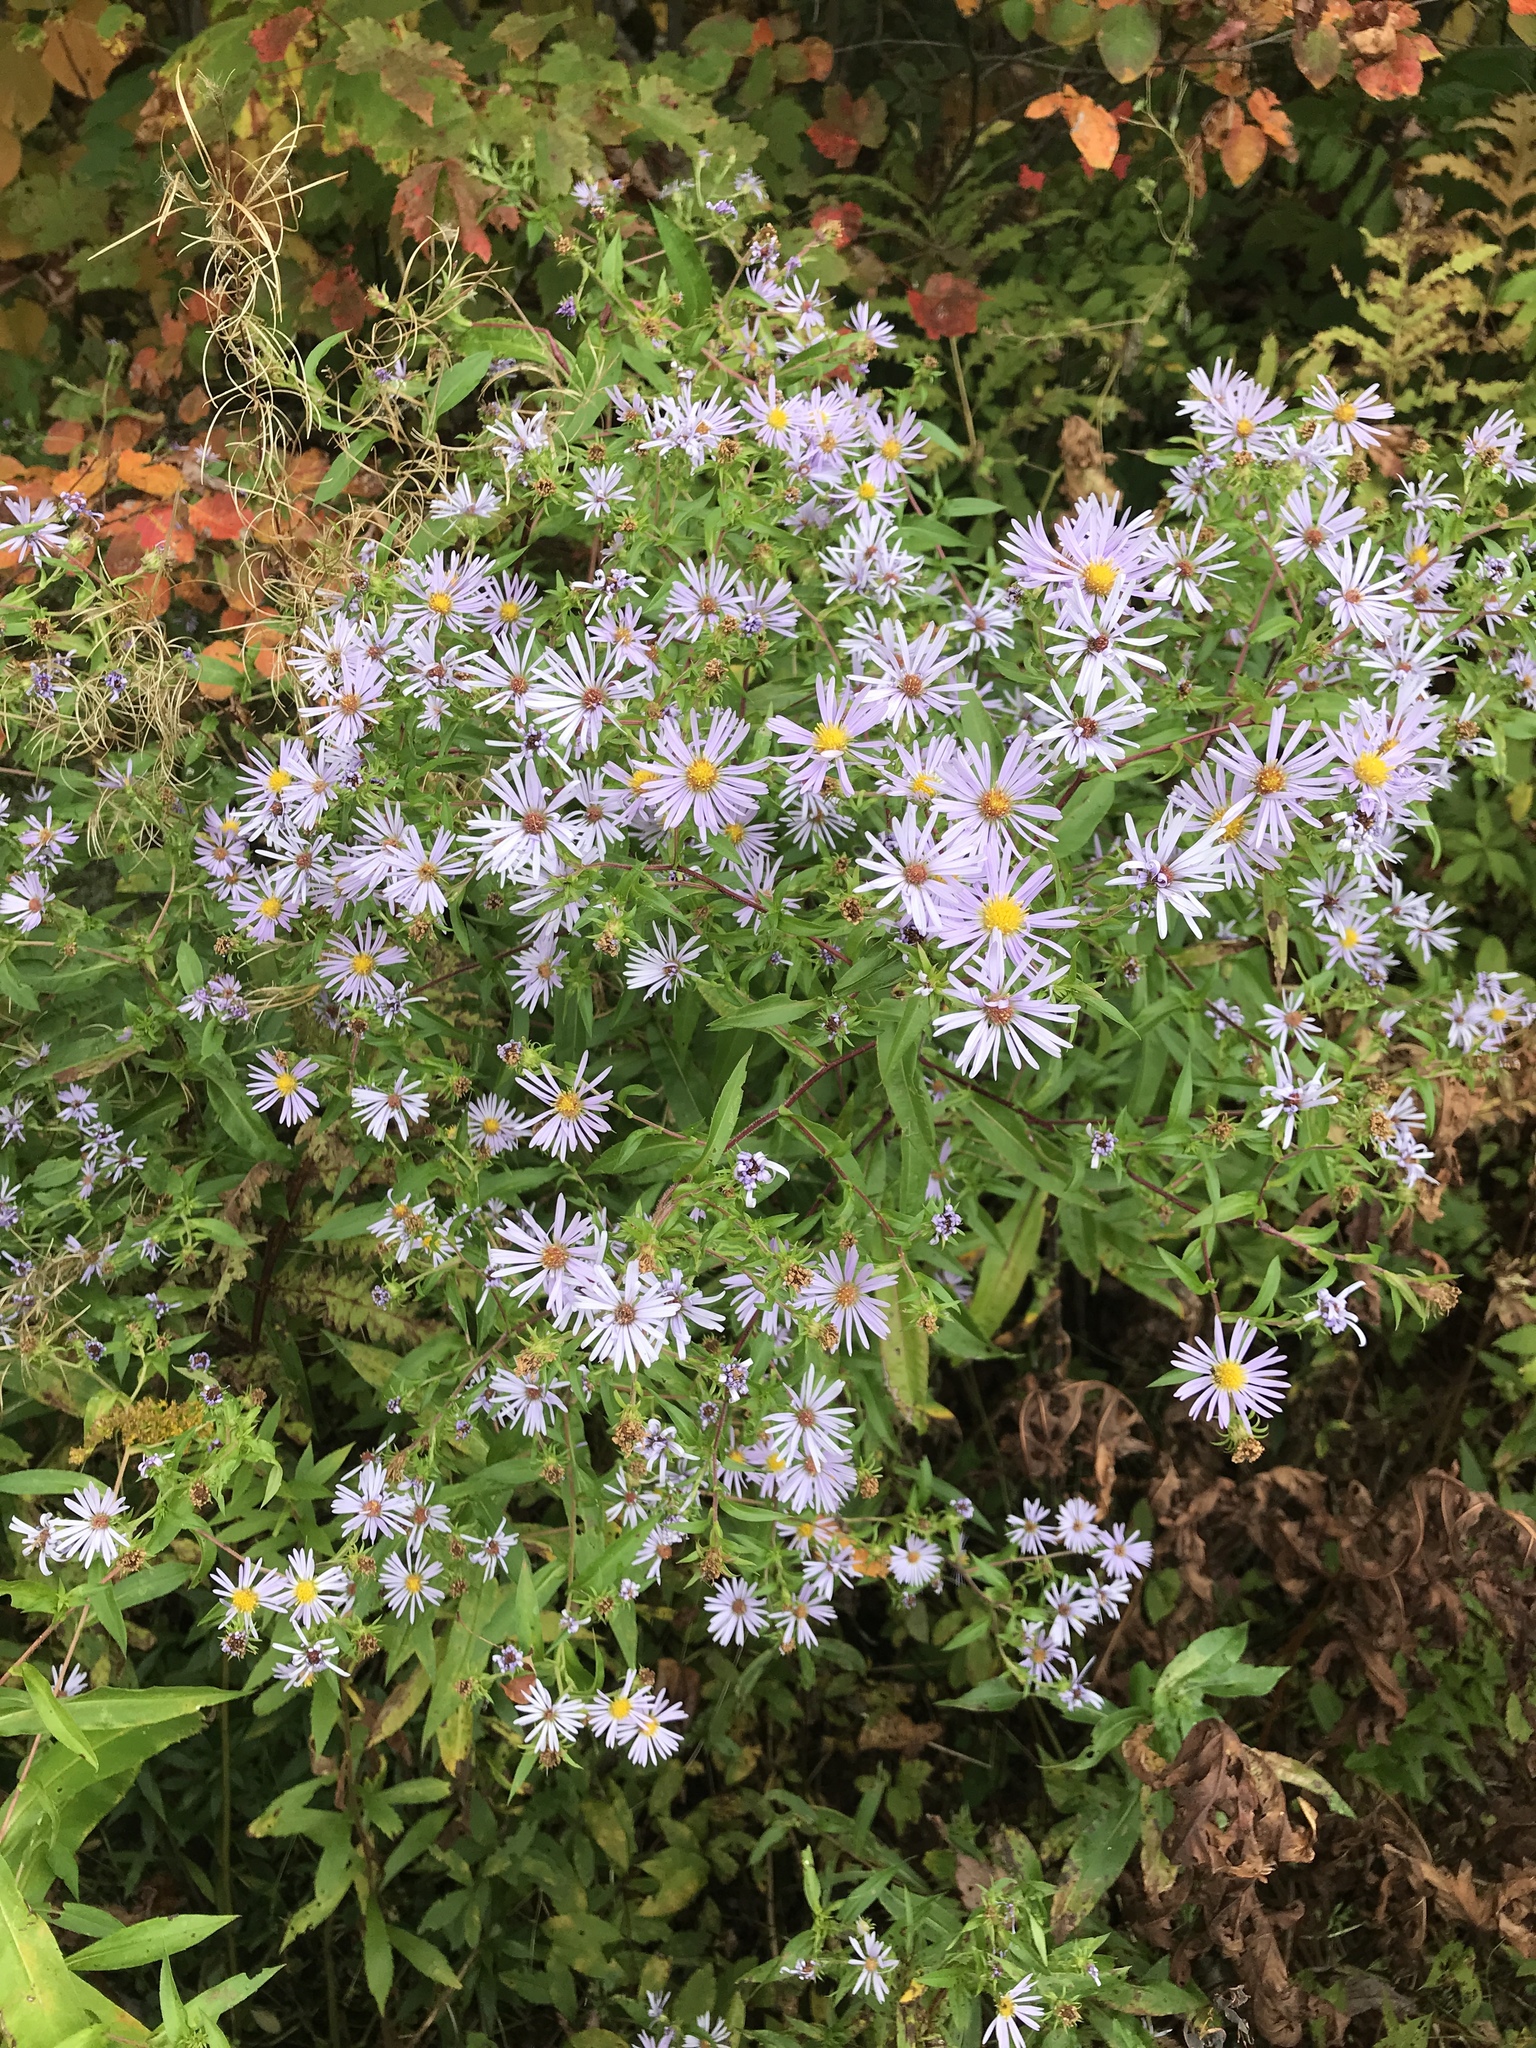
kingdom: Plantae
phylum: Tracheophyta
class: Magnoliopsida
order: Asterales
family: Asteraceae
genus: Symphyotrichum
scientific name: Symphyotrichum puniceum
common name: Bog aster
